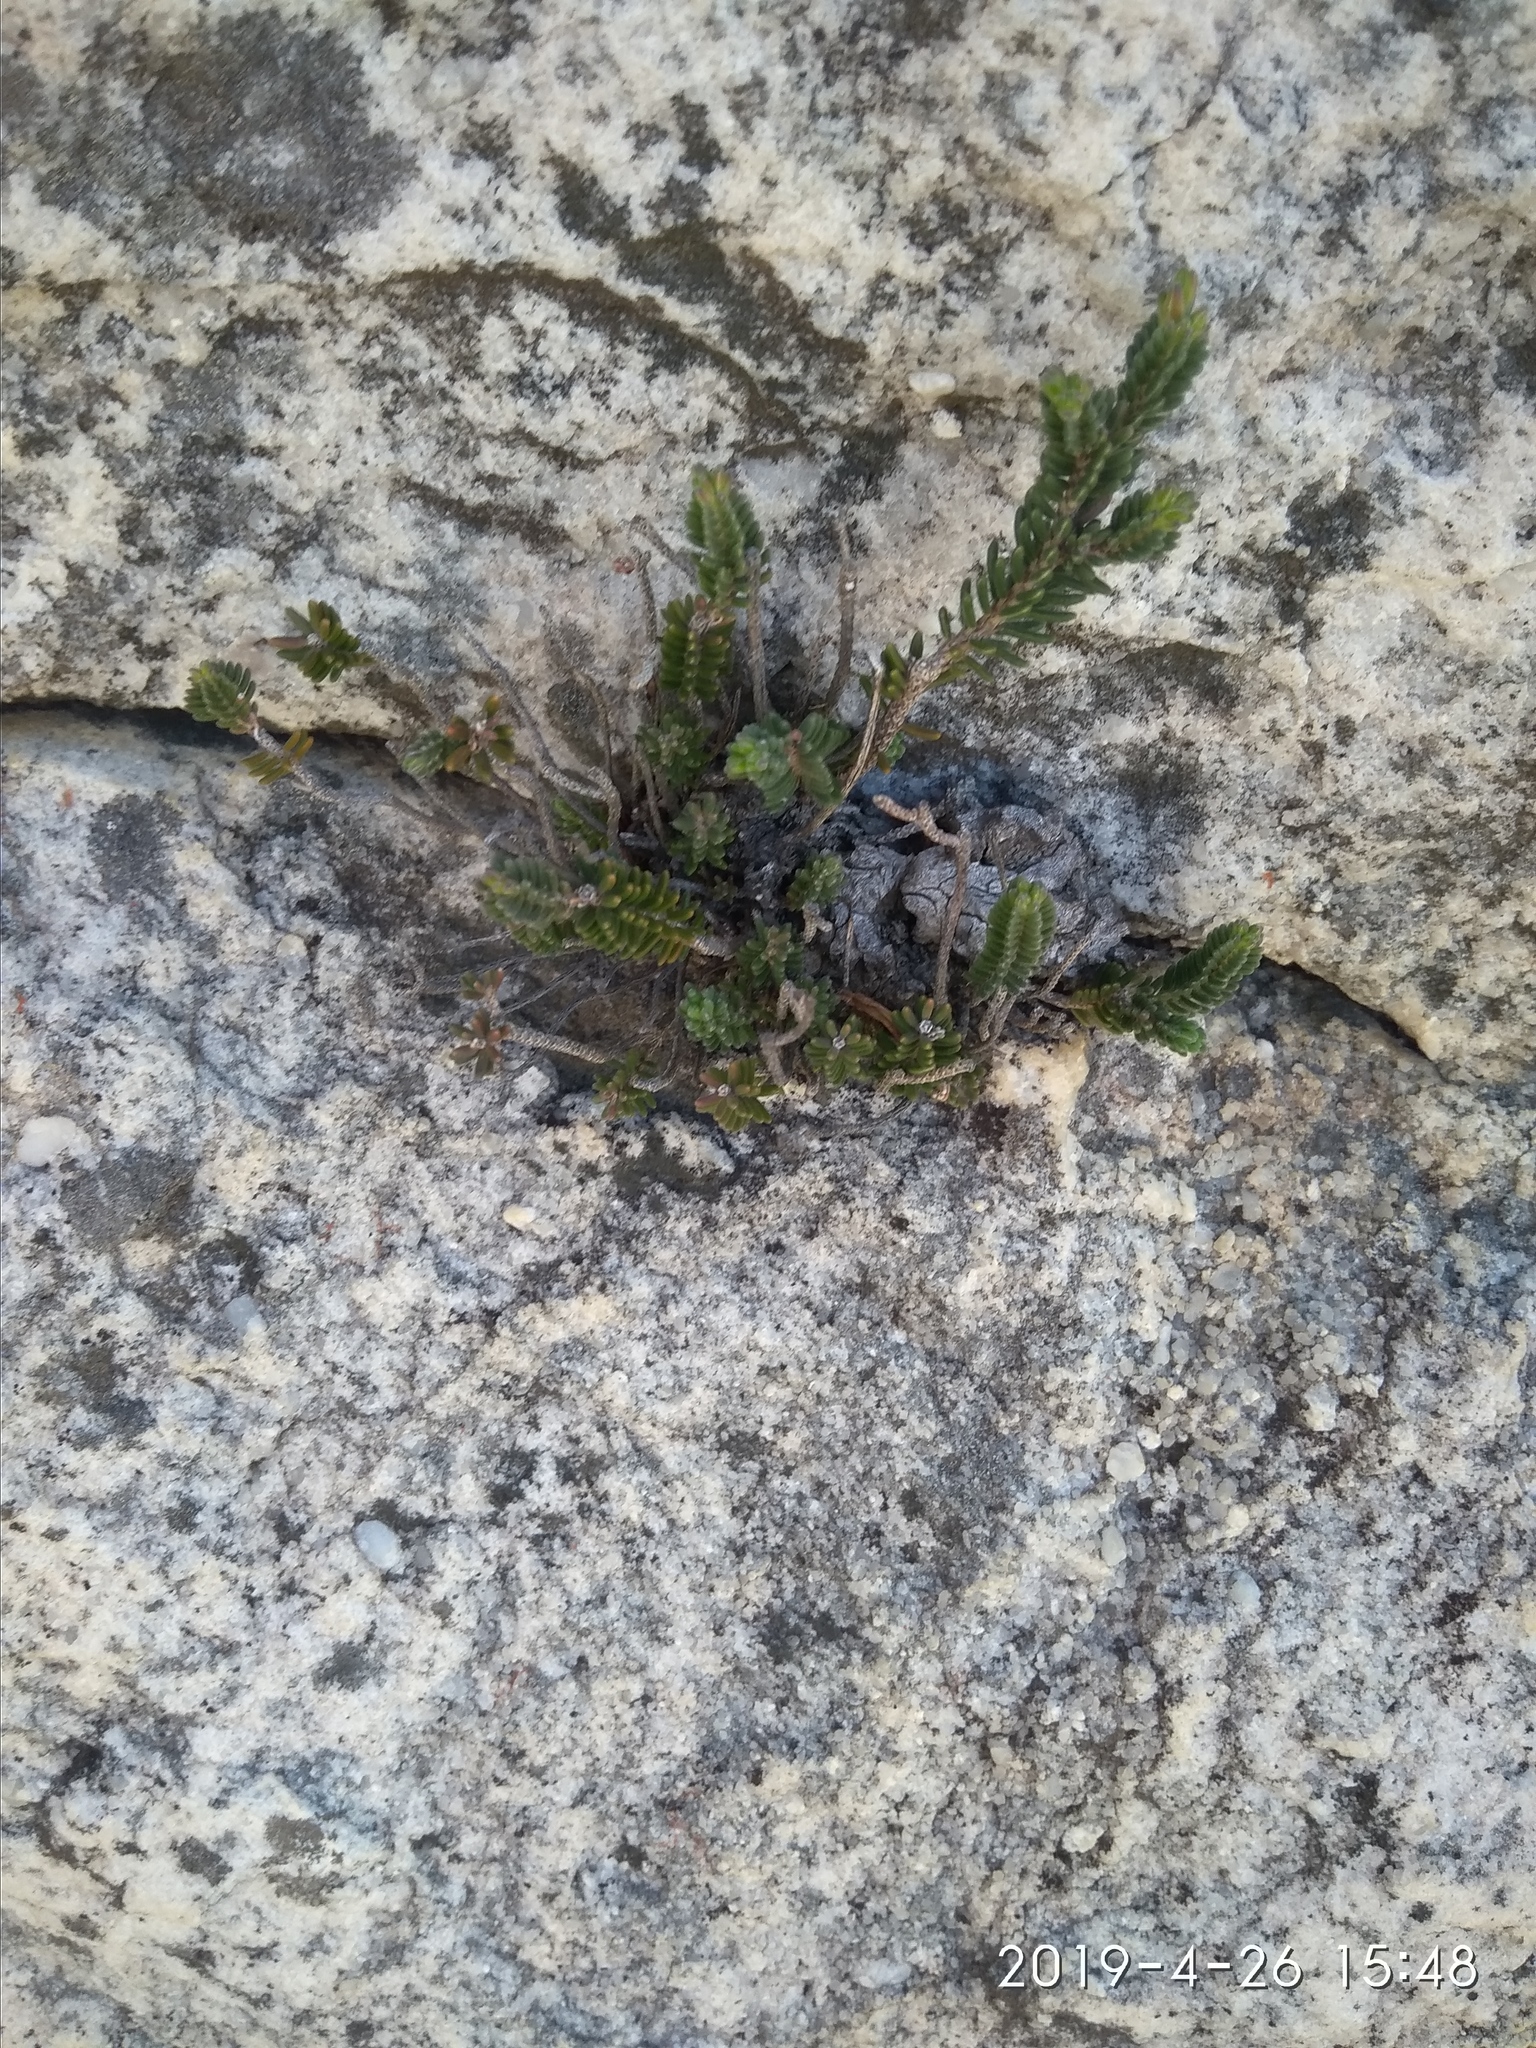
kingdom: Plantae
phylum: Tracheophyta
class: Magnoliopsida
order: Ericales
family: Ericaceae
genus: Erica
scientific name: Erica amidae
